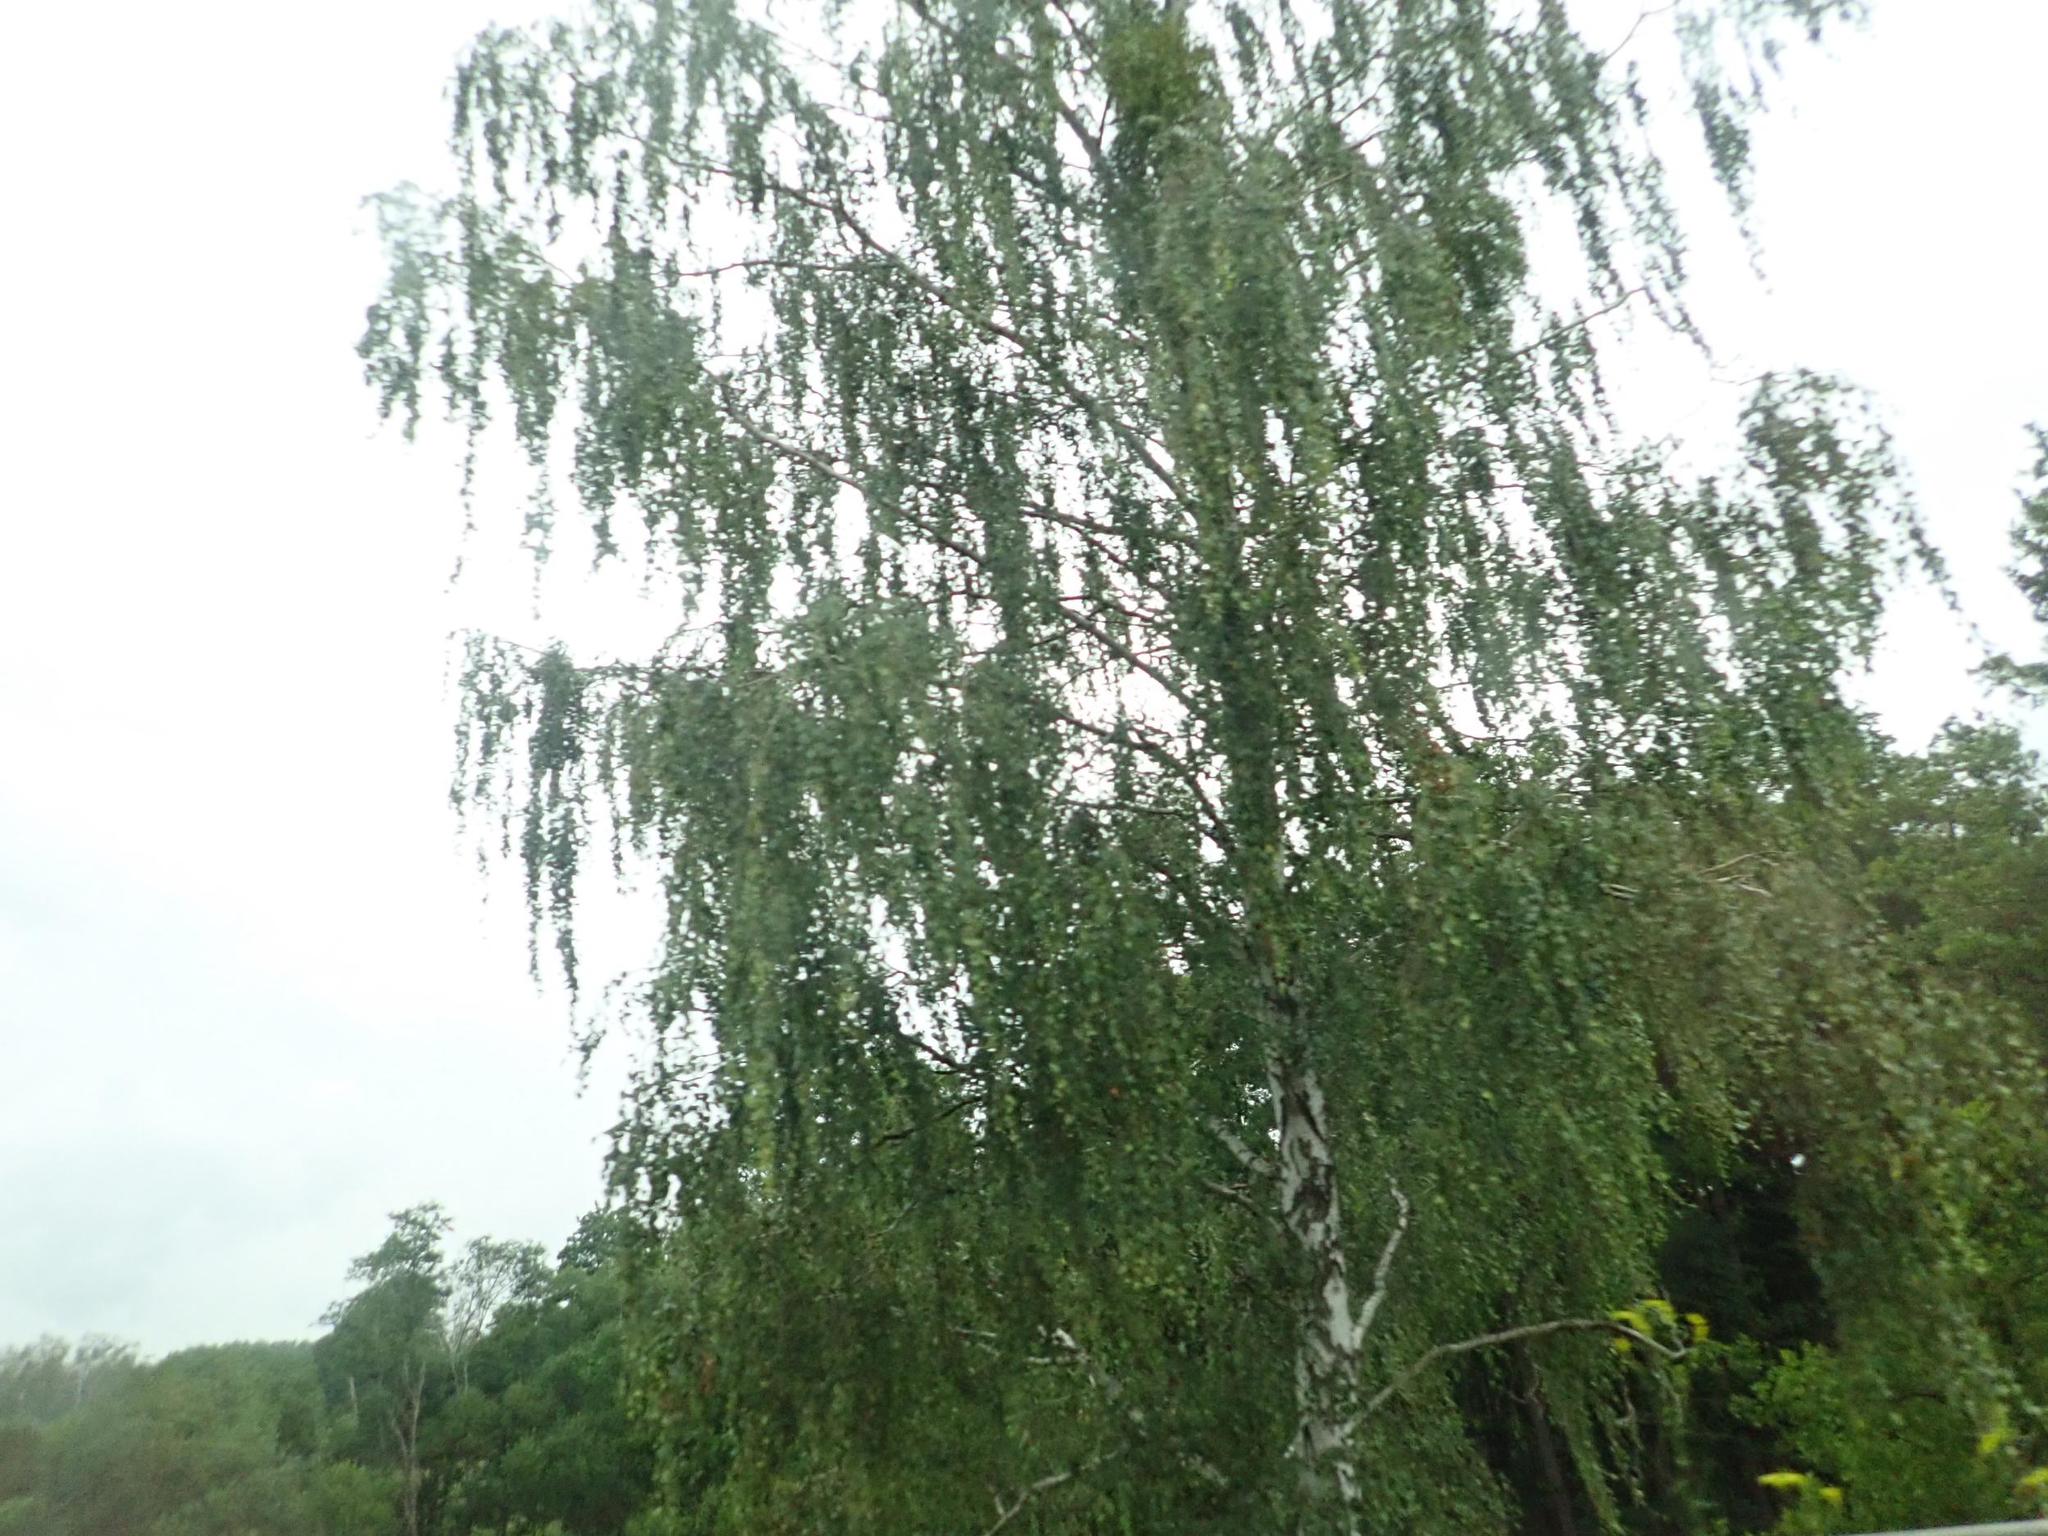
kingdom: Plantae
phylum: Tracheophyta
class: Magnoliopsida
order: Fagales
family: Betulaceae
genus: Betula
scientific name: Betula pendula
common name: Silver birch
